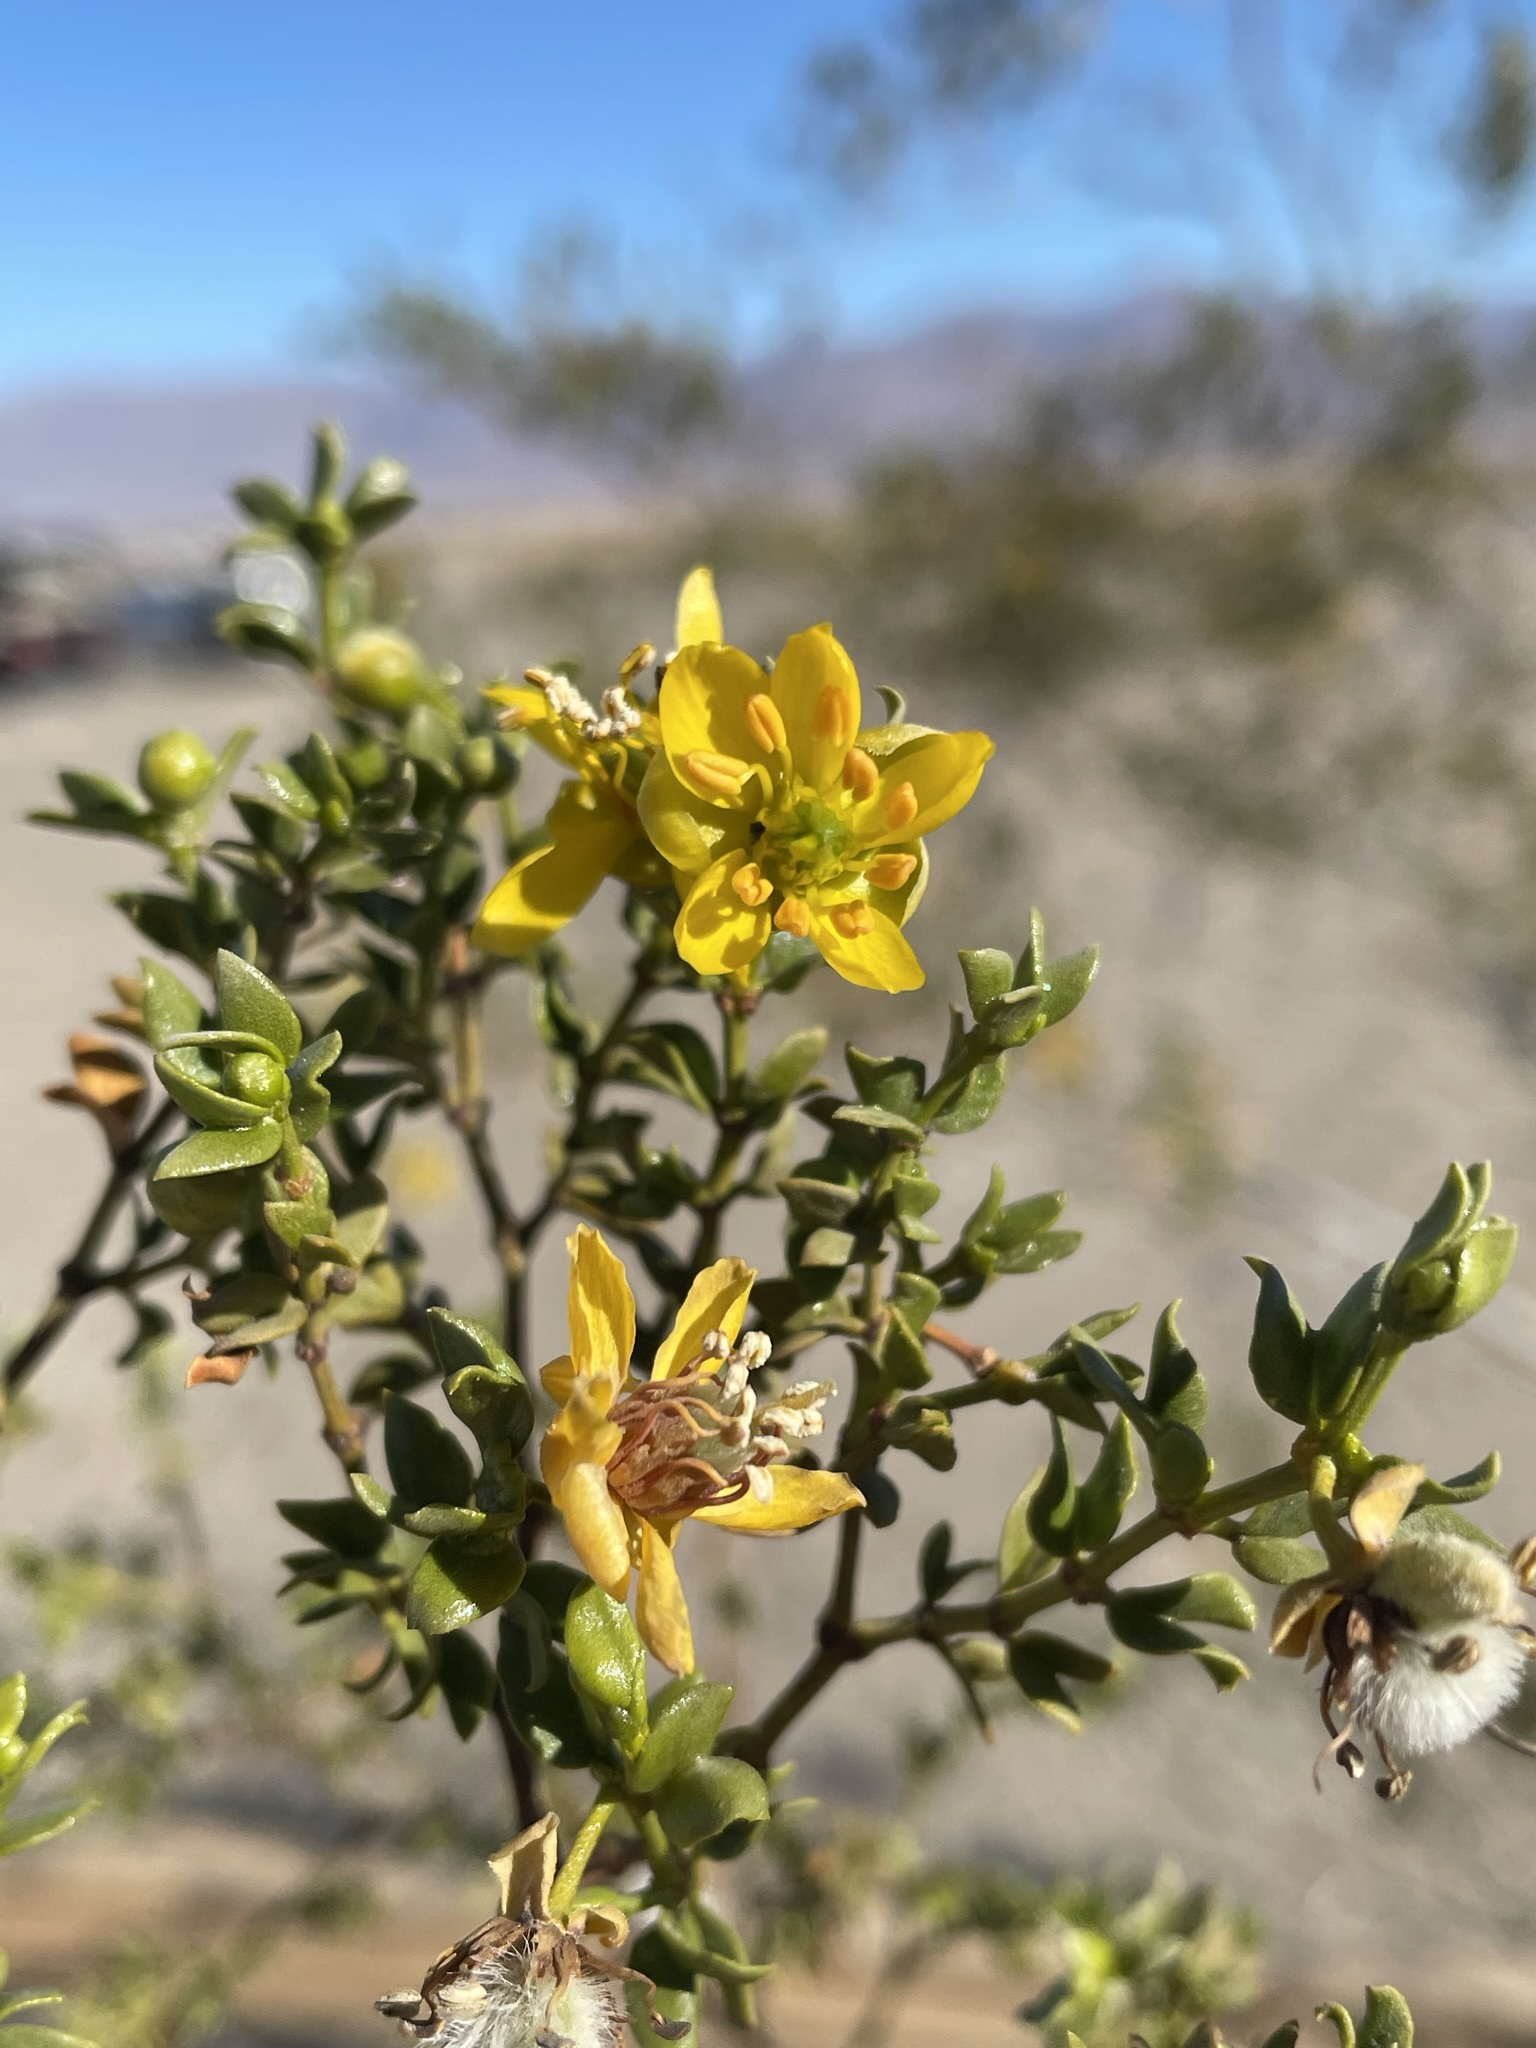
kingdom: Plantae
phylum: Tracheophyta
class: Magnoliopsida
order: Zygophyllales
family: Zygophyllaceae
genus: Larrea
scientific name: Larrea tridentata
